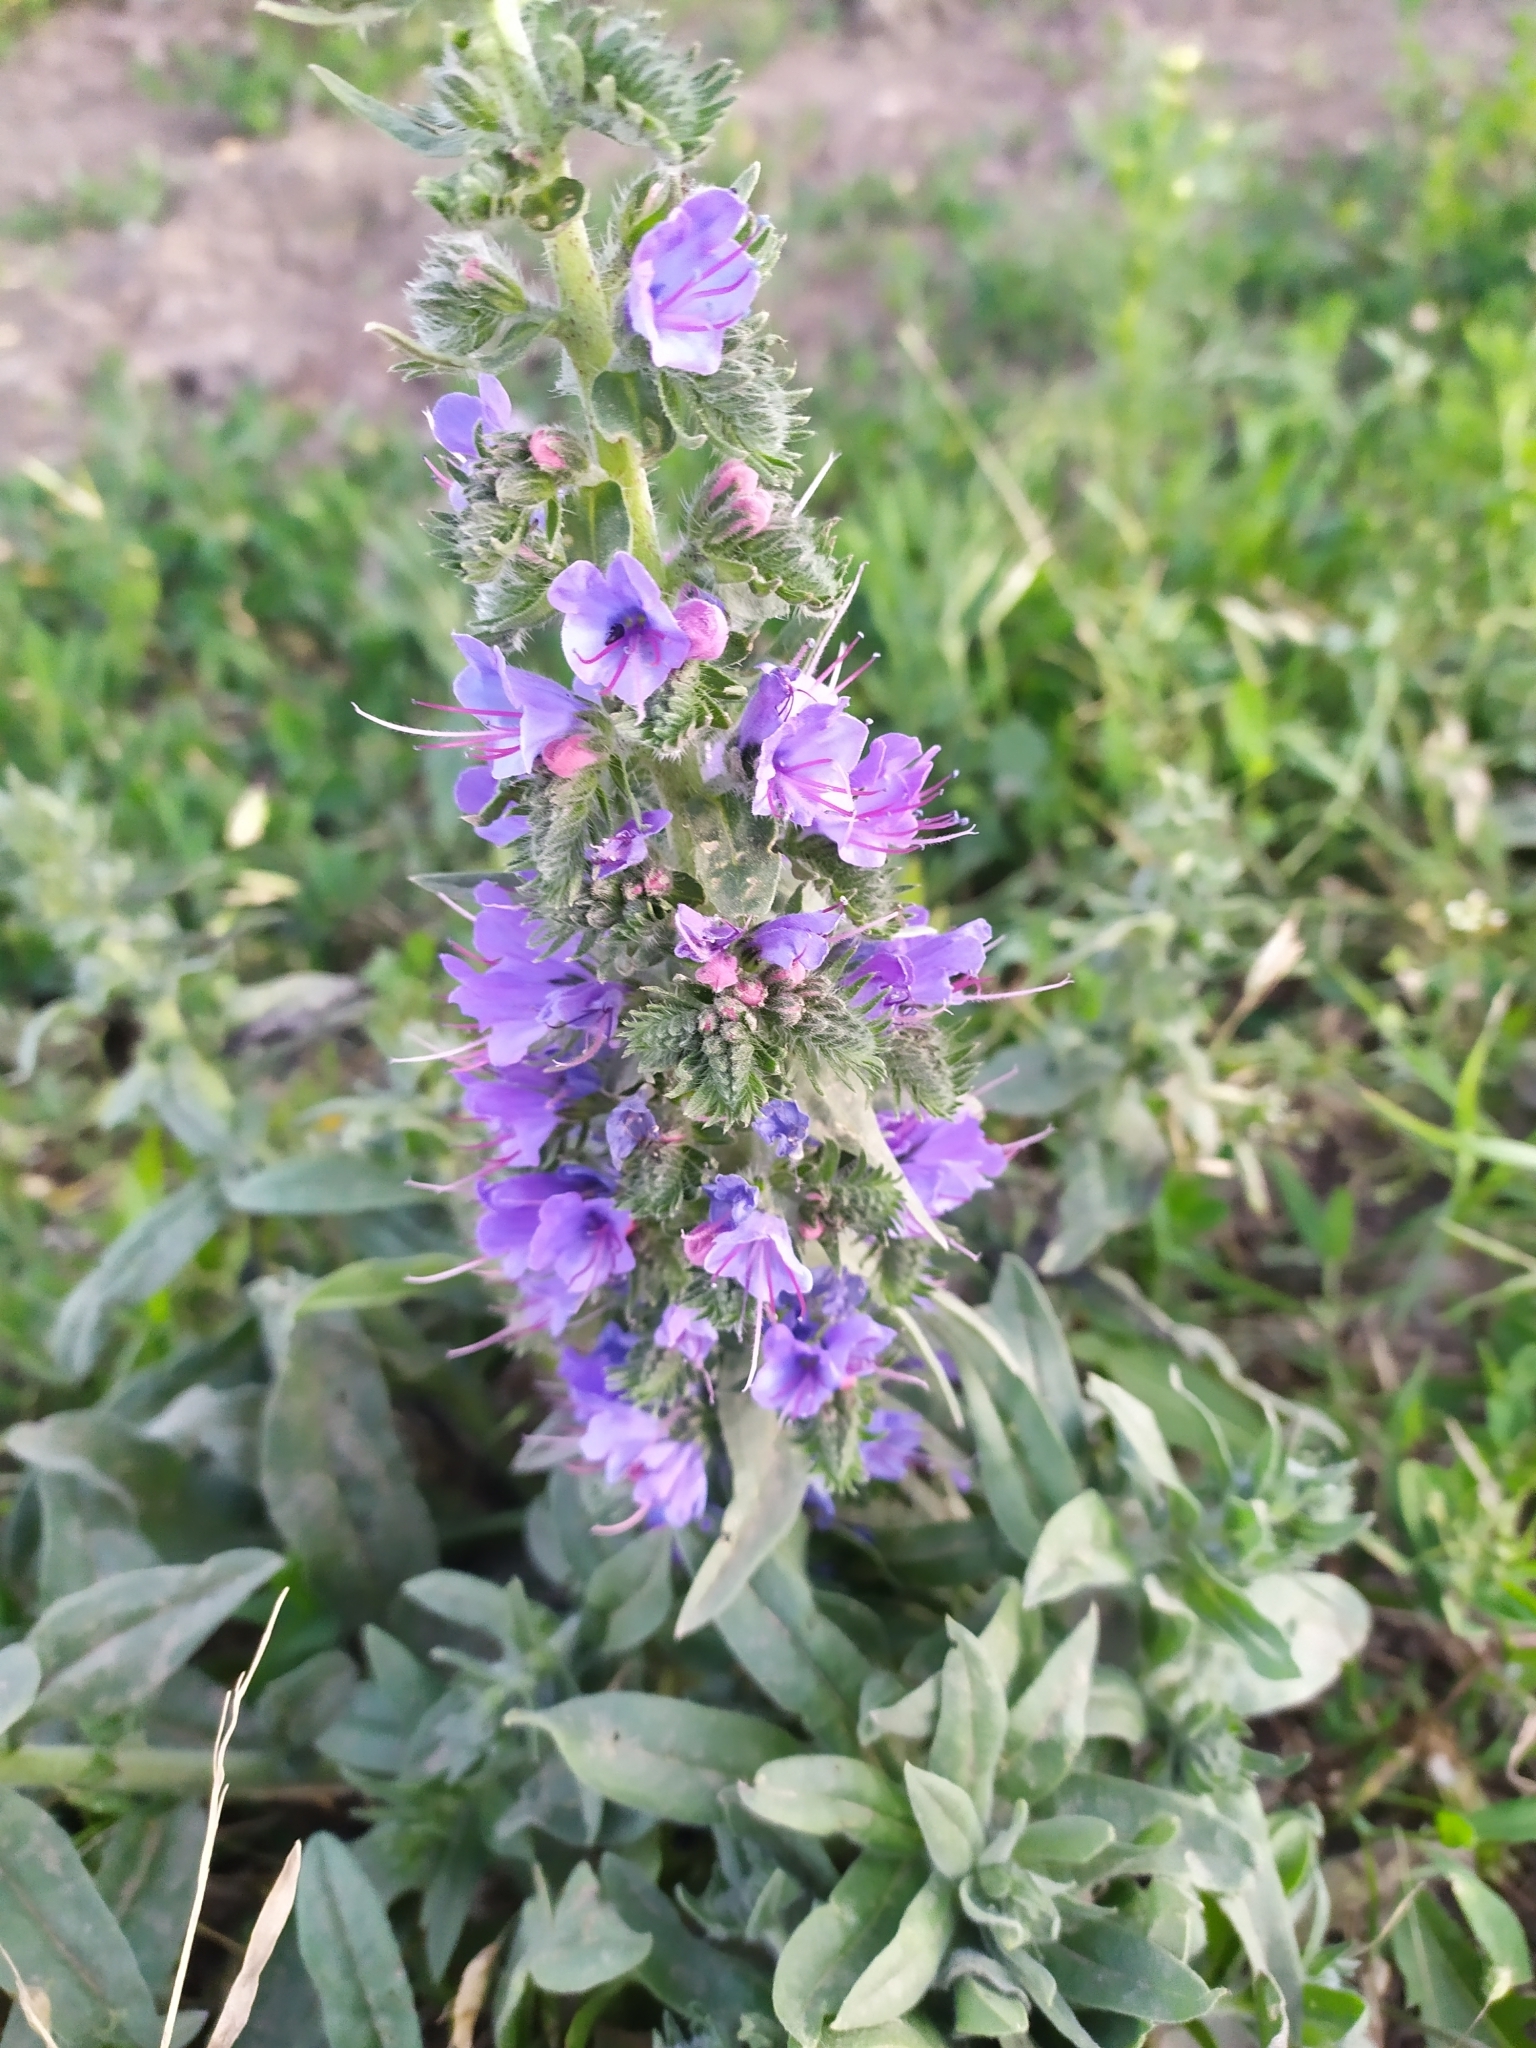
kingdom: Plantae
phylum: Tracheophyta
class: Magnoliopsida
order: Boraginales
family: Boraginaceae
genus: Echium
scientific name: Echium vulgare
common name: Common viper's bugloss
